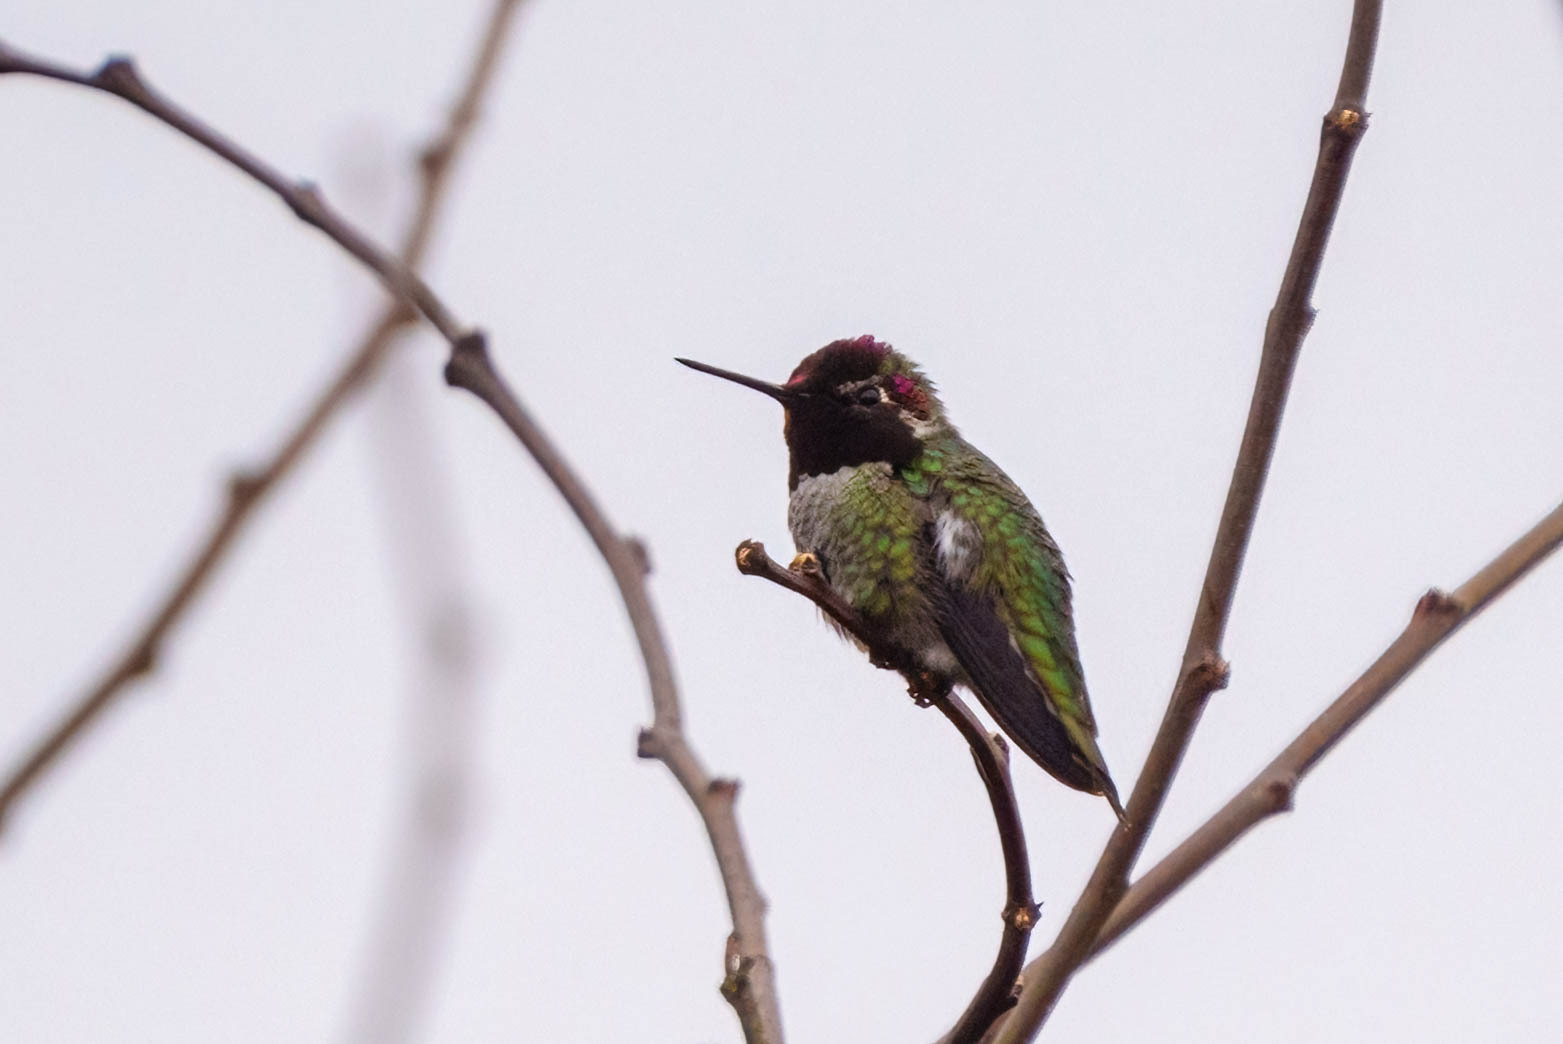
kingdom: Animalia
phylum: Chordata
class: Aves
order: Apodiformes
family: Trochilidae
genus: Calypte
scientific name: Calypte anna
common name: Anna's hummingbird
